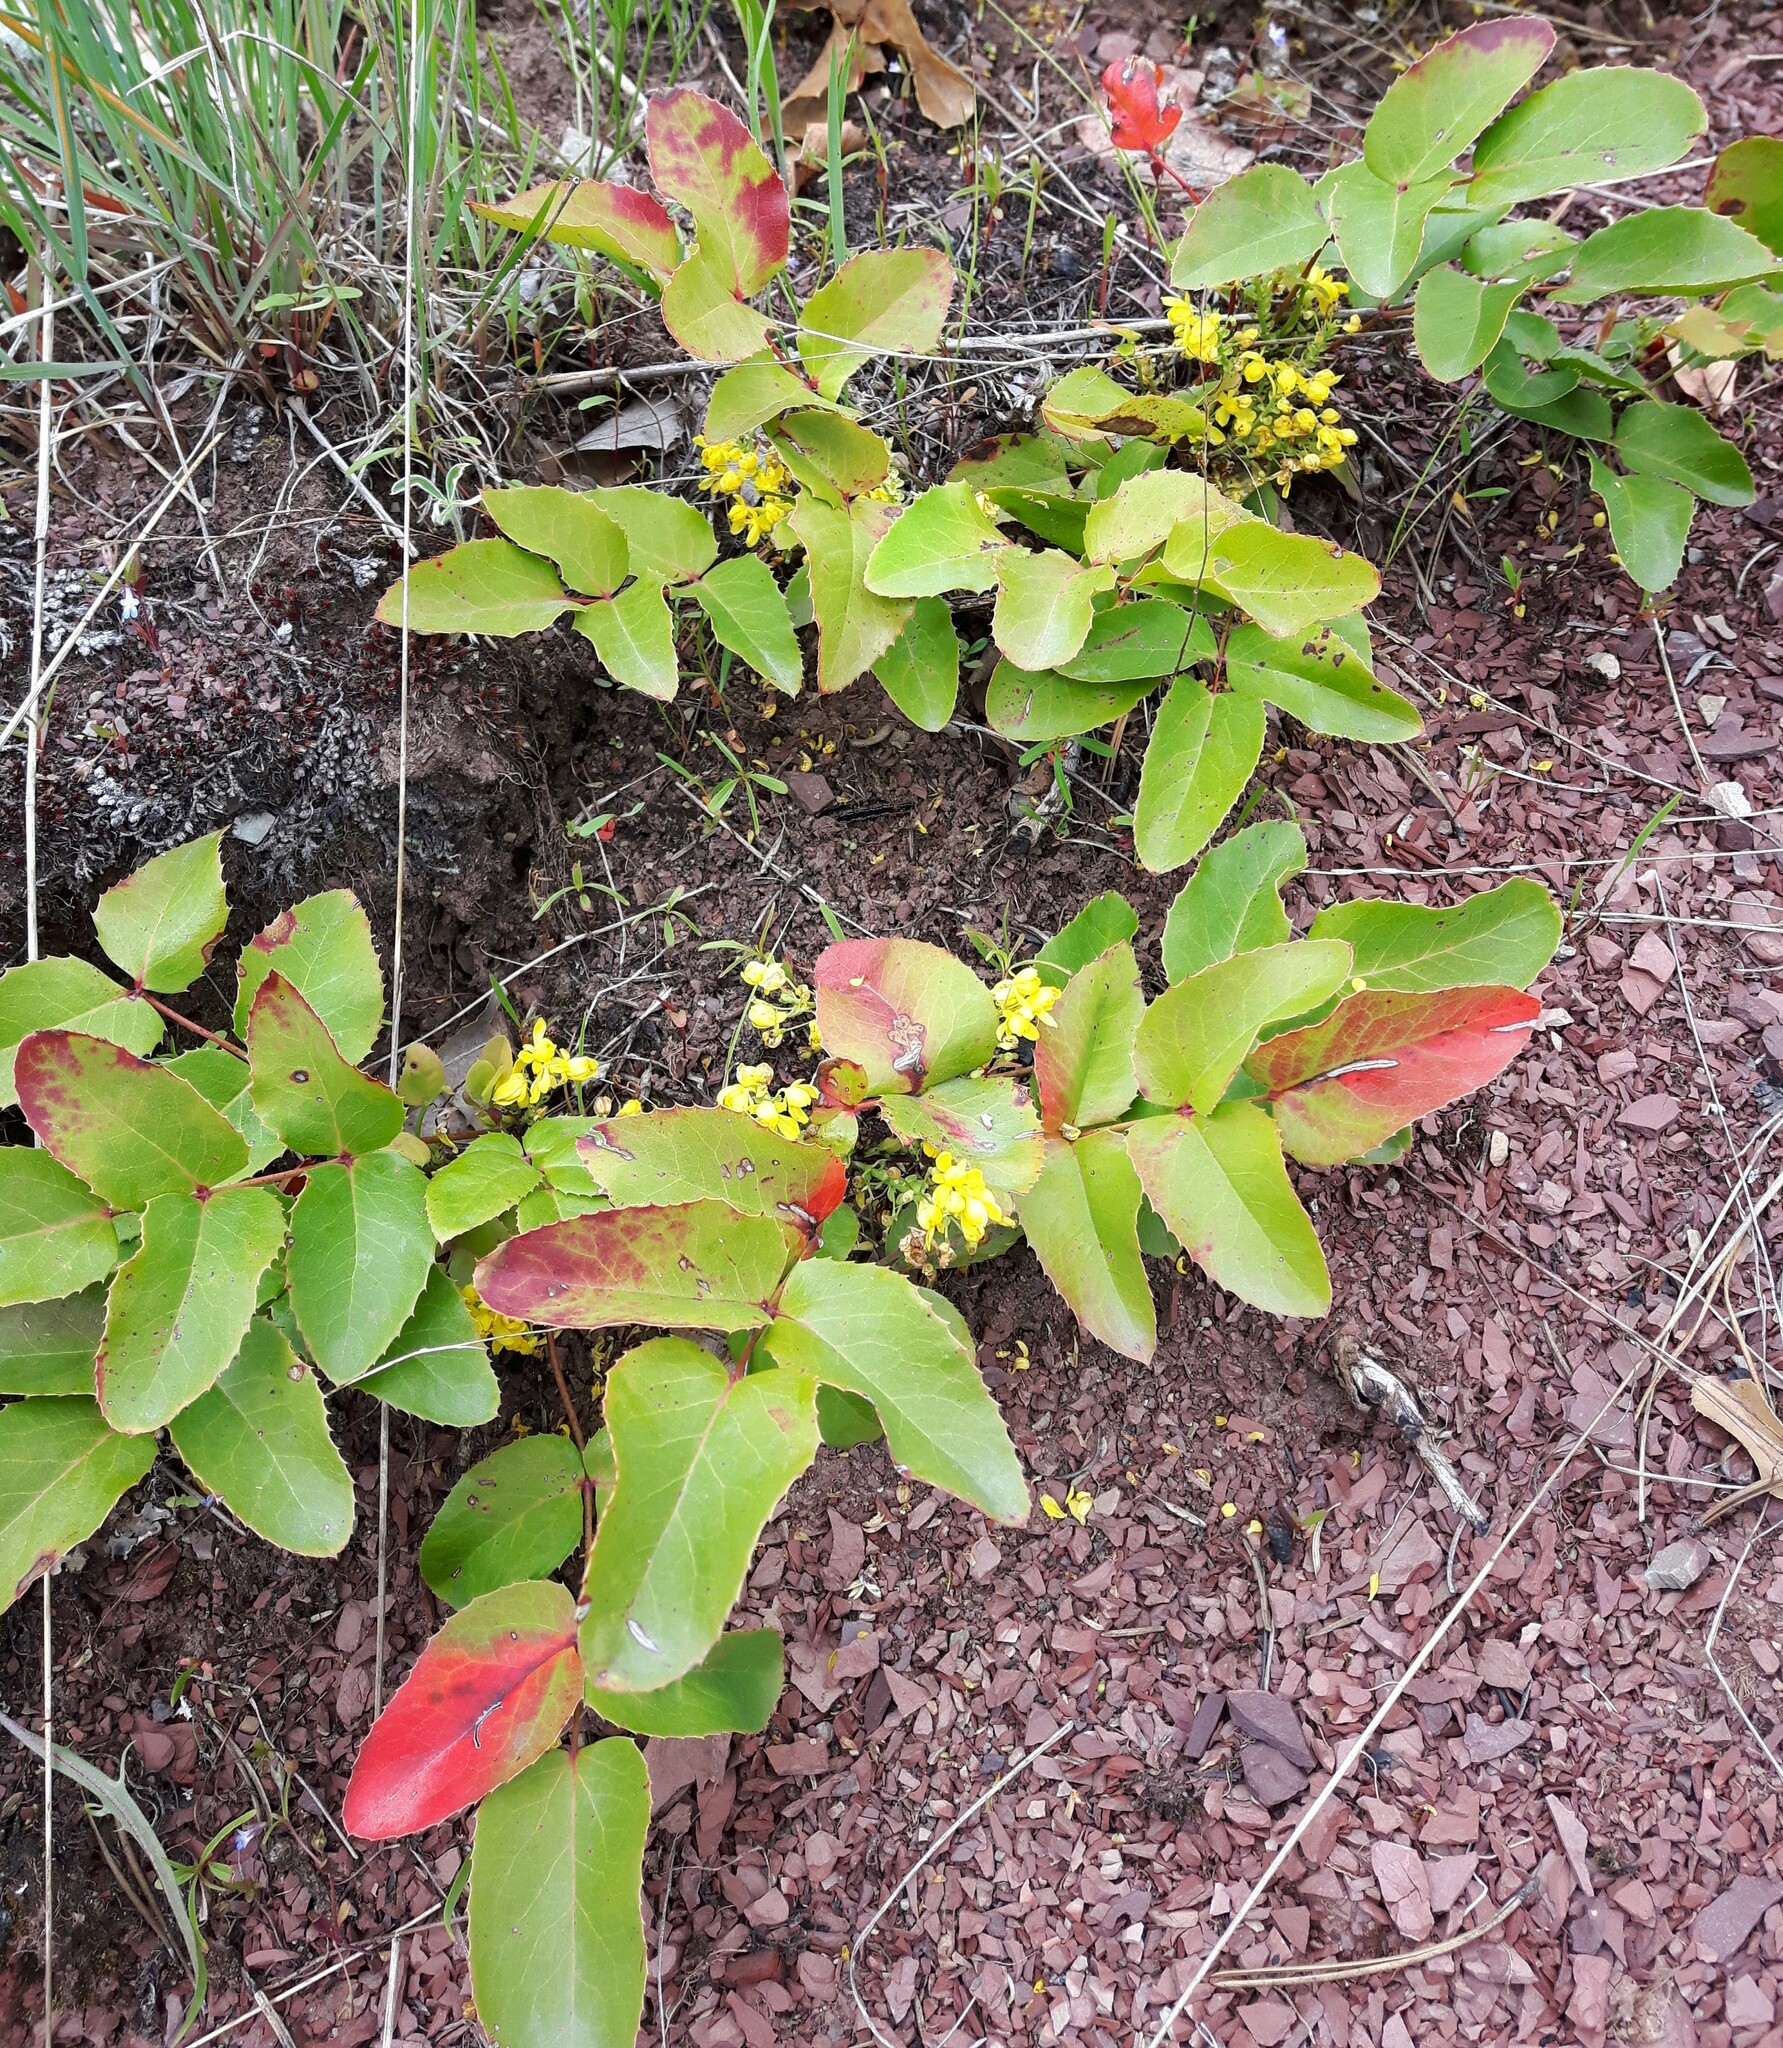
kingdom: Plantae
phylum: Tracheophyta
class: Magnoliopsida
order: Ranunculales
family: Berberidaceae
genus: Mahonia
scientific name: Mahonia repens
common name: Creeping oregon-grape
